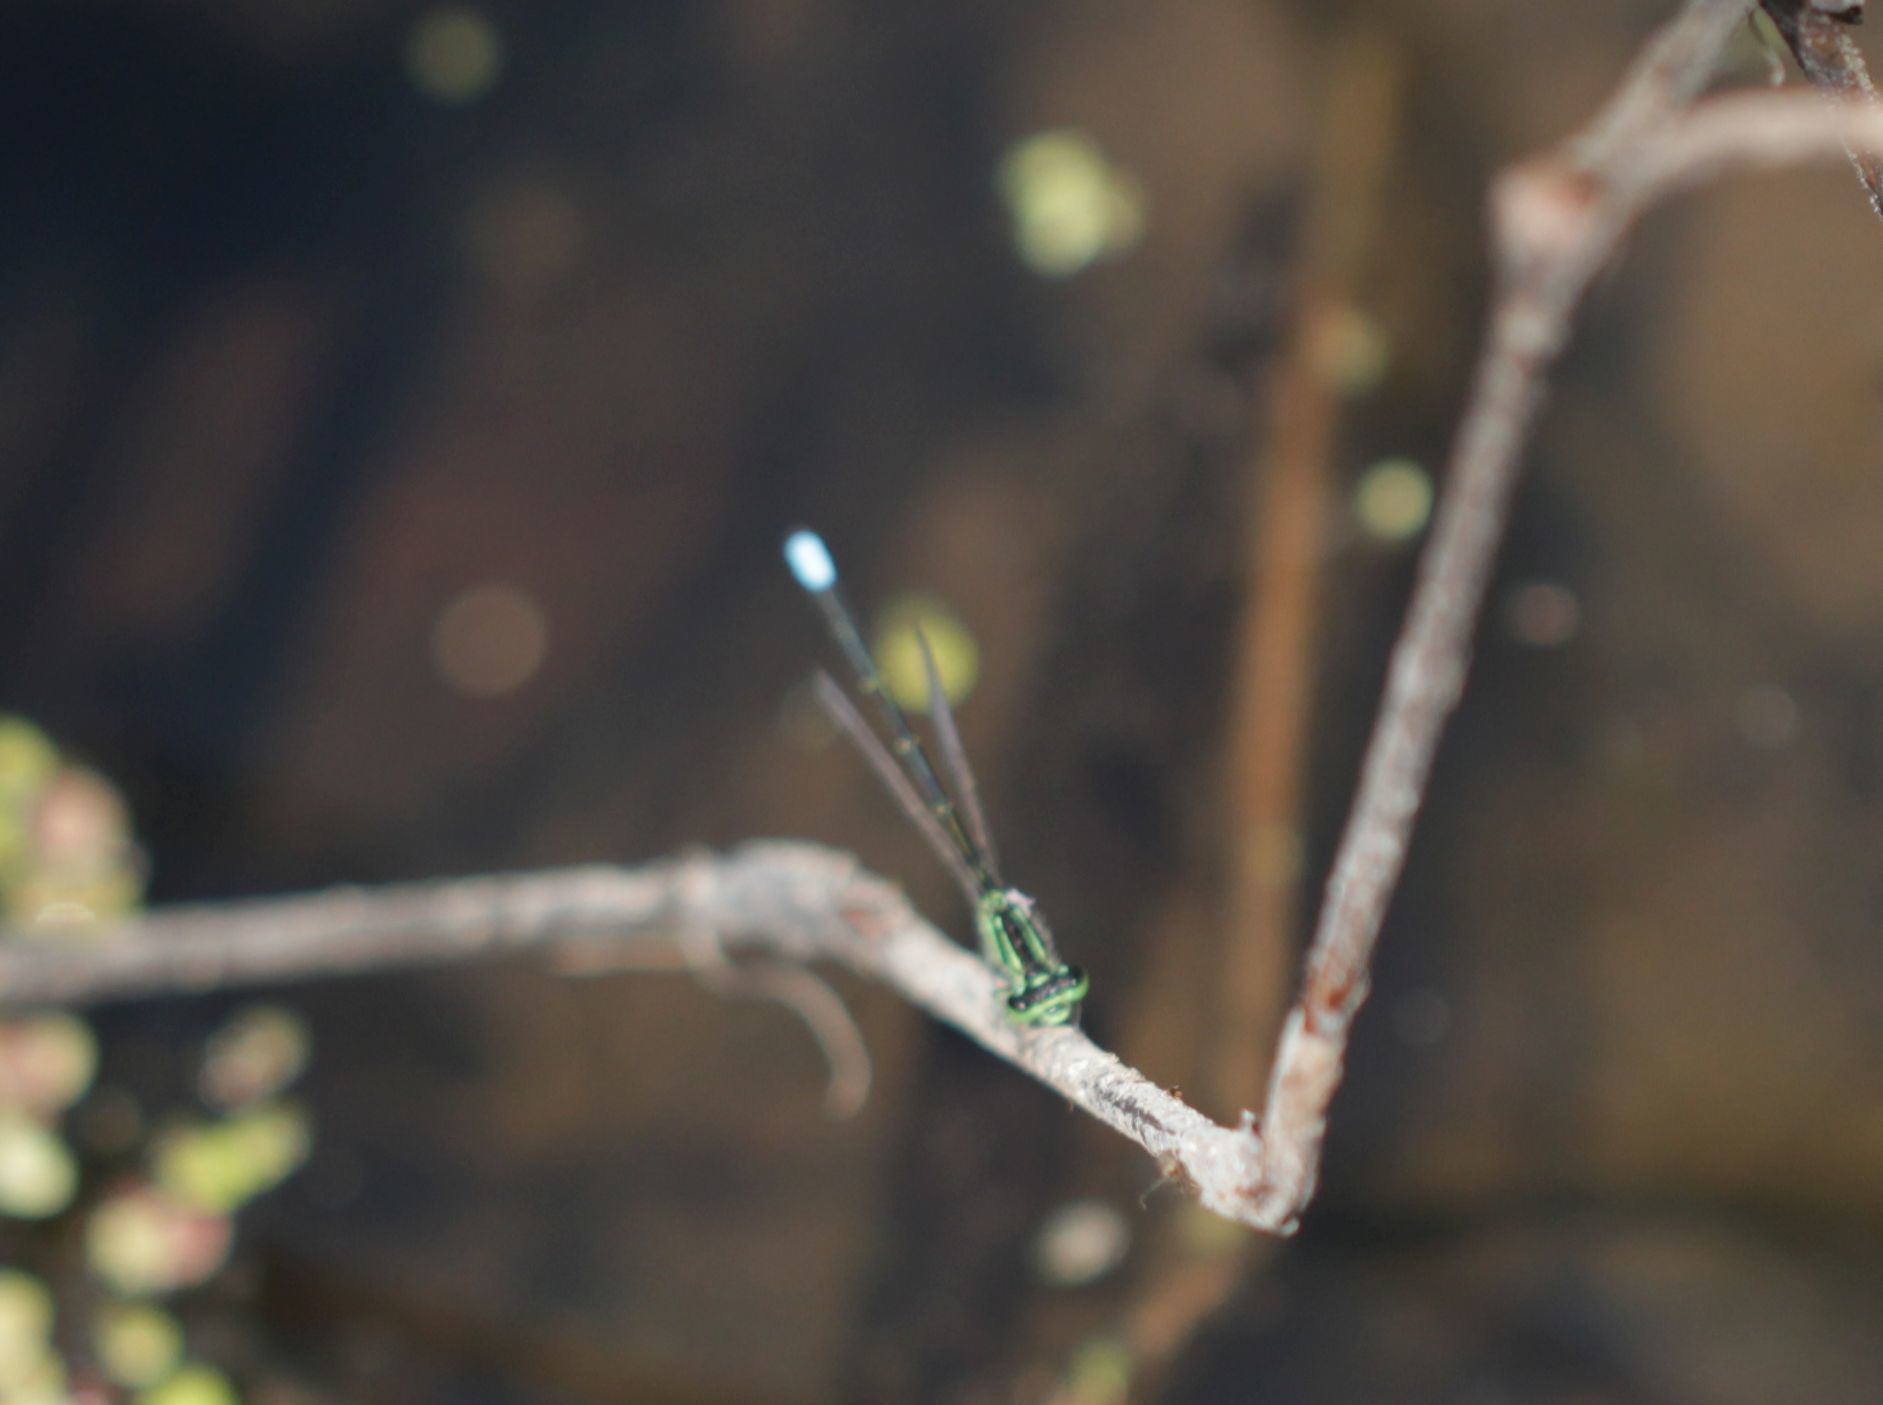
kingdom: Animalia
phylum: Arthropoda
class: Insecta
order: Odonata
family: Coenagrionidae
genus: Ischnura
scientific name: Ischnura verticalis
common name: Eastern forktail
